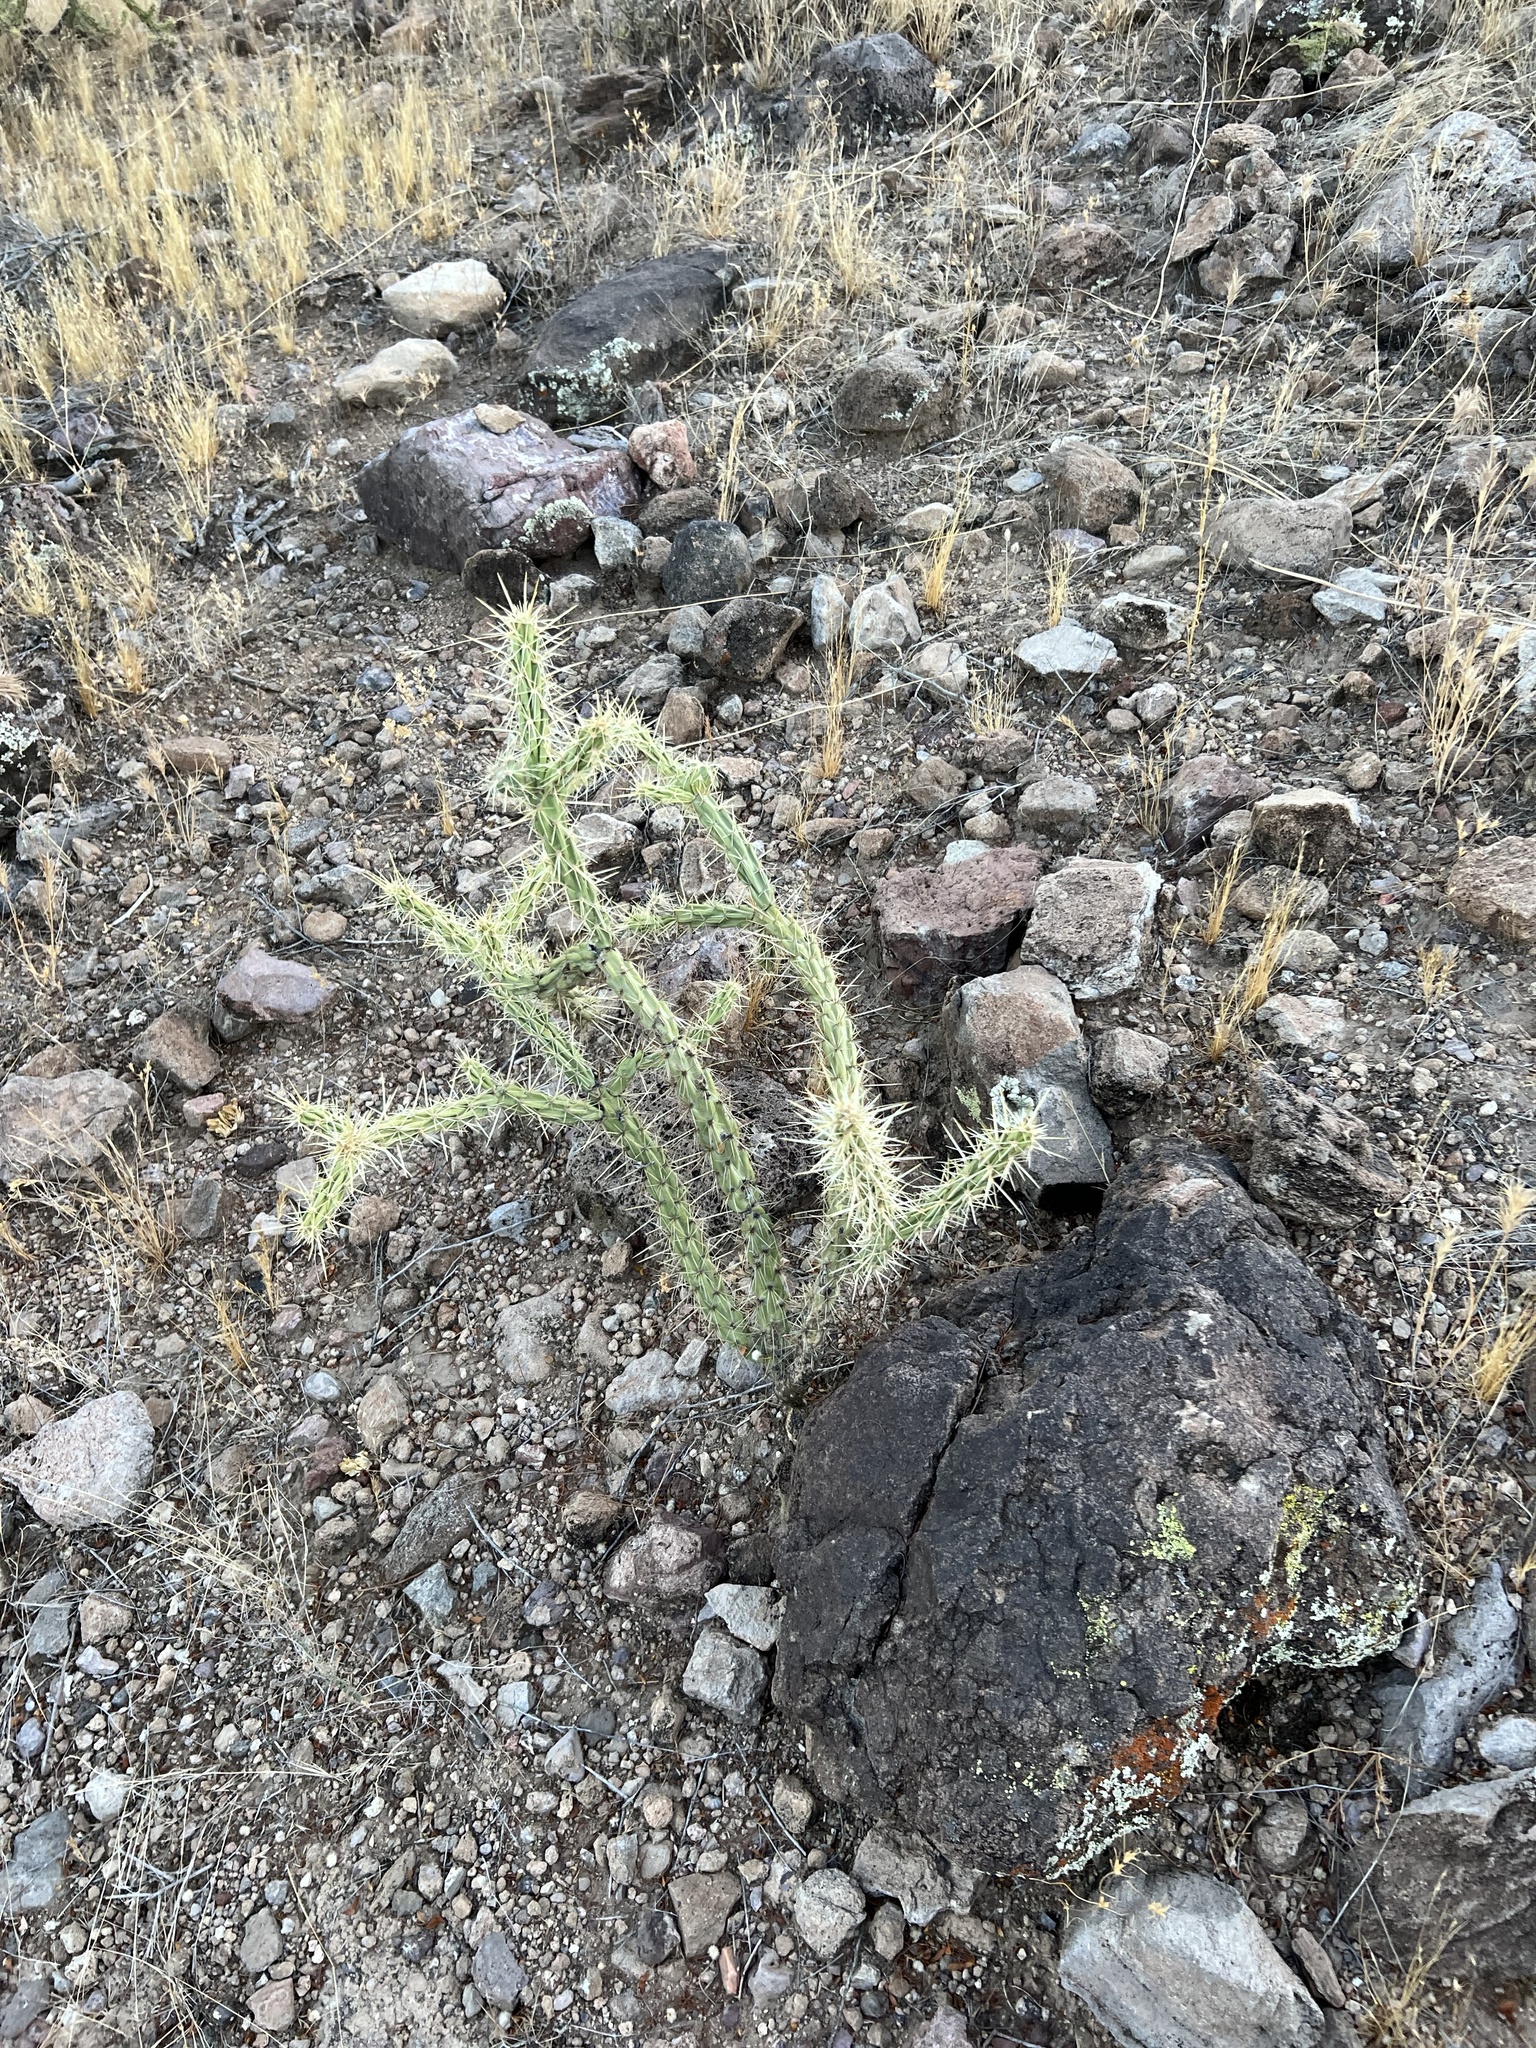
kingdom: Plantae
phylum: Tracheophyta
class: Magnoliopsida
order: Caryophyllales
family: Cactaceae
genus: Cylindropuntia
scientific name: Cylindropuntia acanthocarpa
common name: Buckhorn cholla
